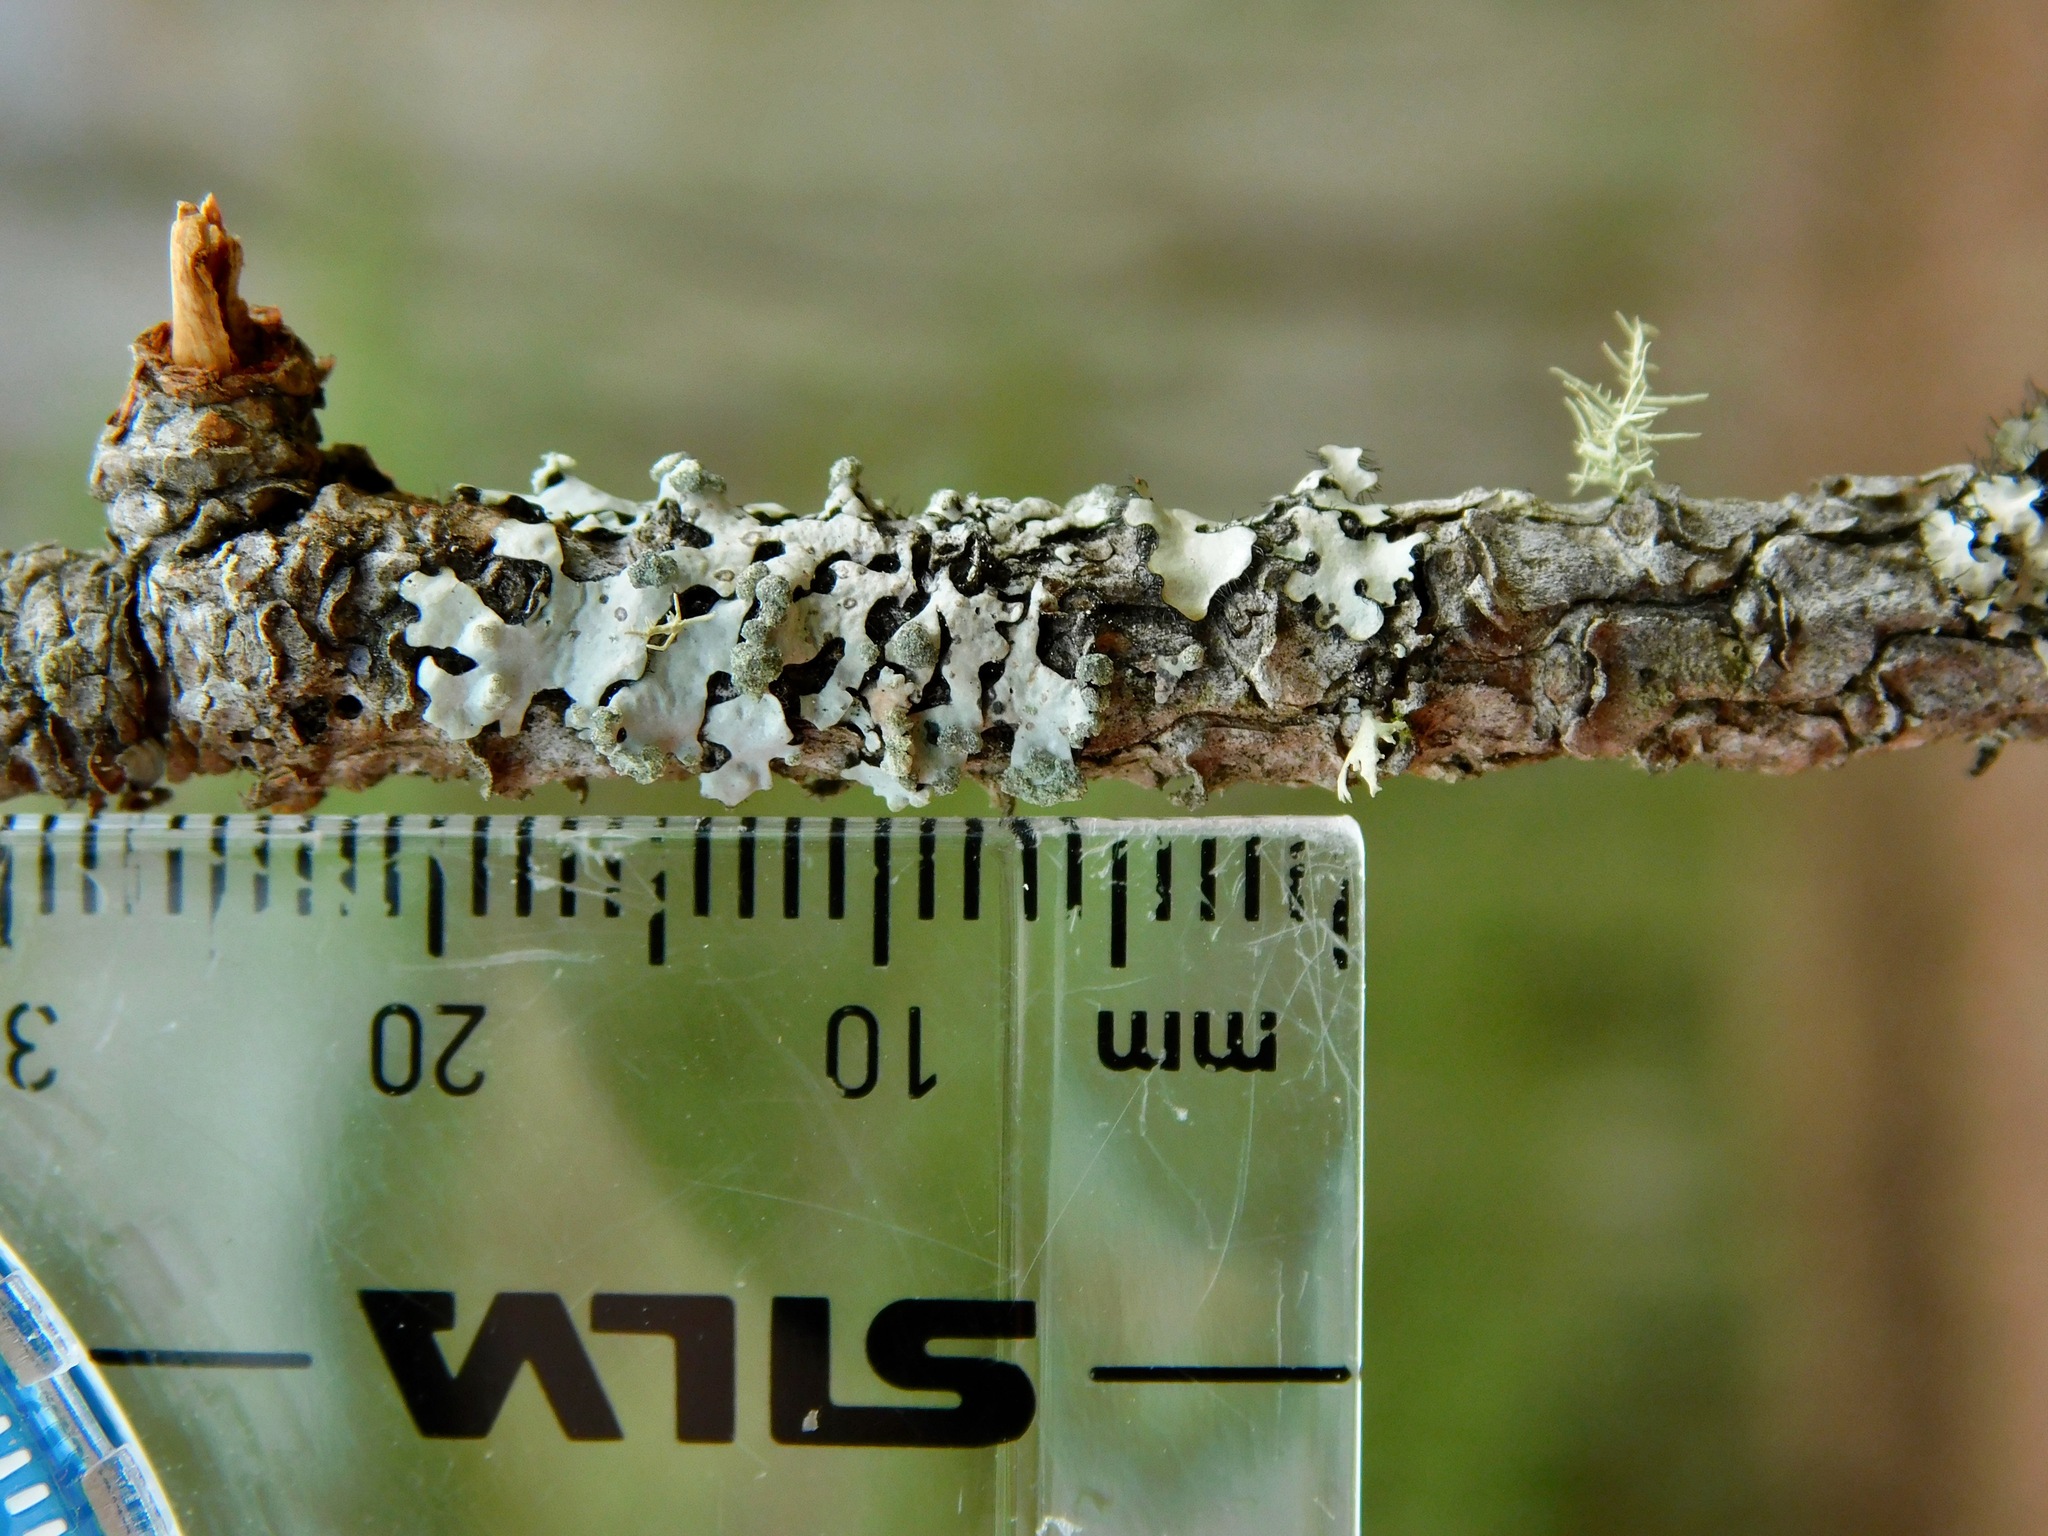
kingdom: Fungi
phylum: Ascomycota
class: Lecanoromycetes
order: Lecanorales
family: Parmeliaceae
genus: Myelochroa
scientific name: Myelochroa metarevoluta
